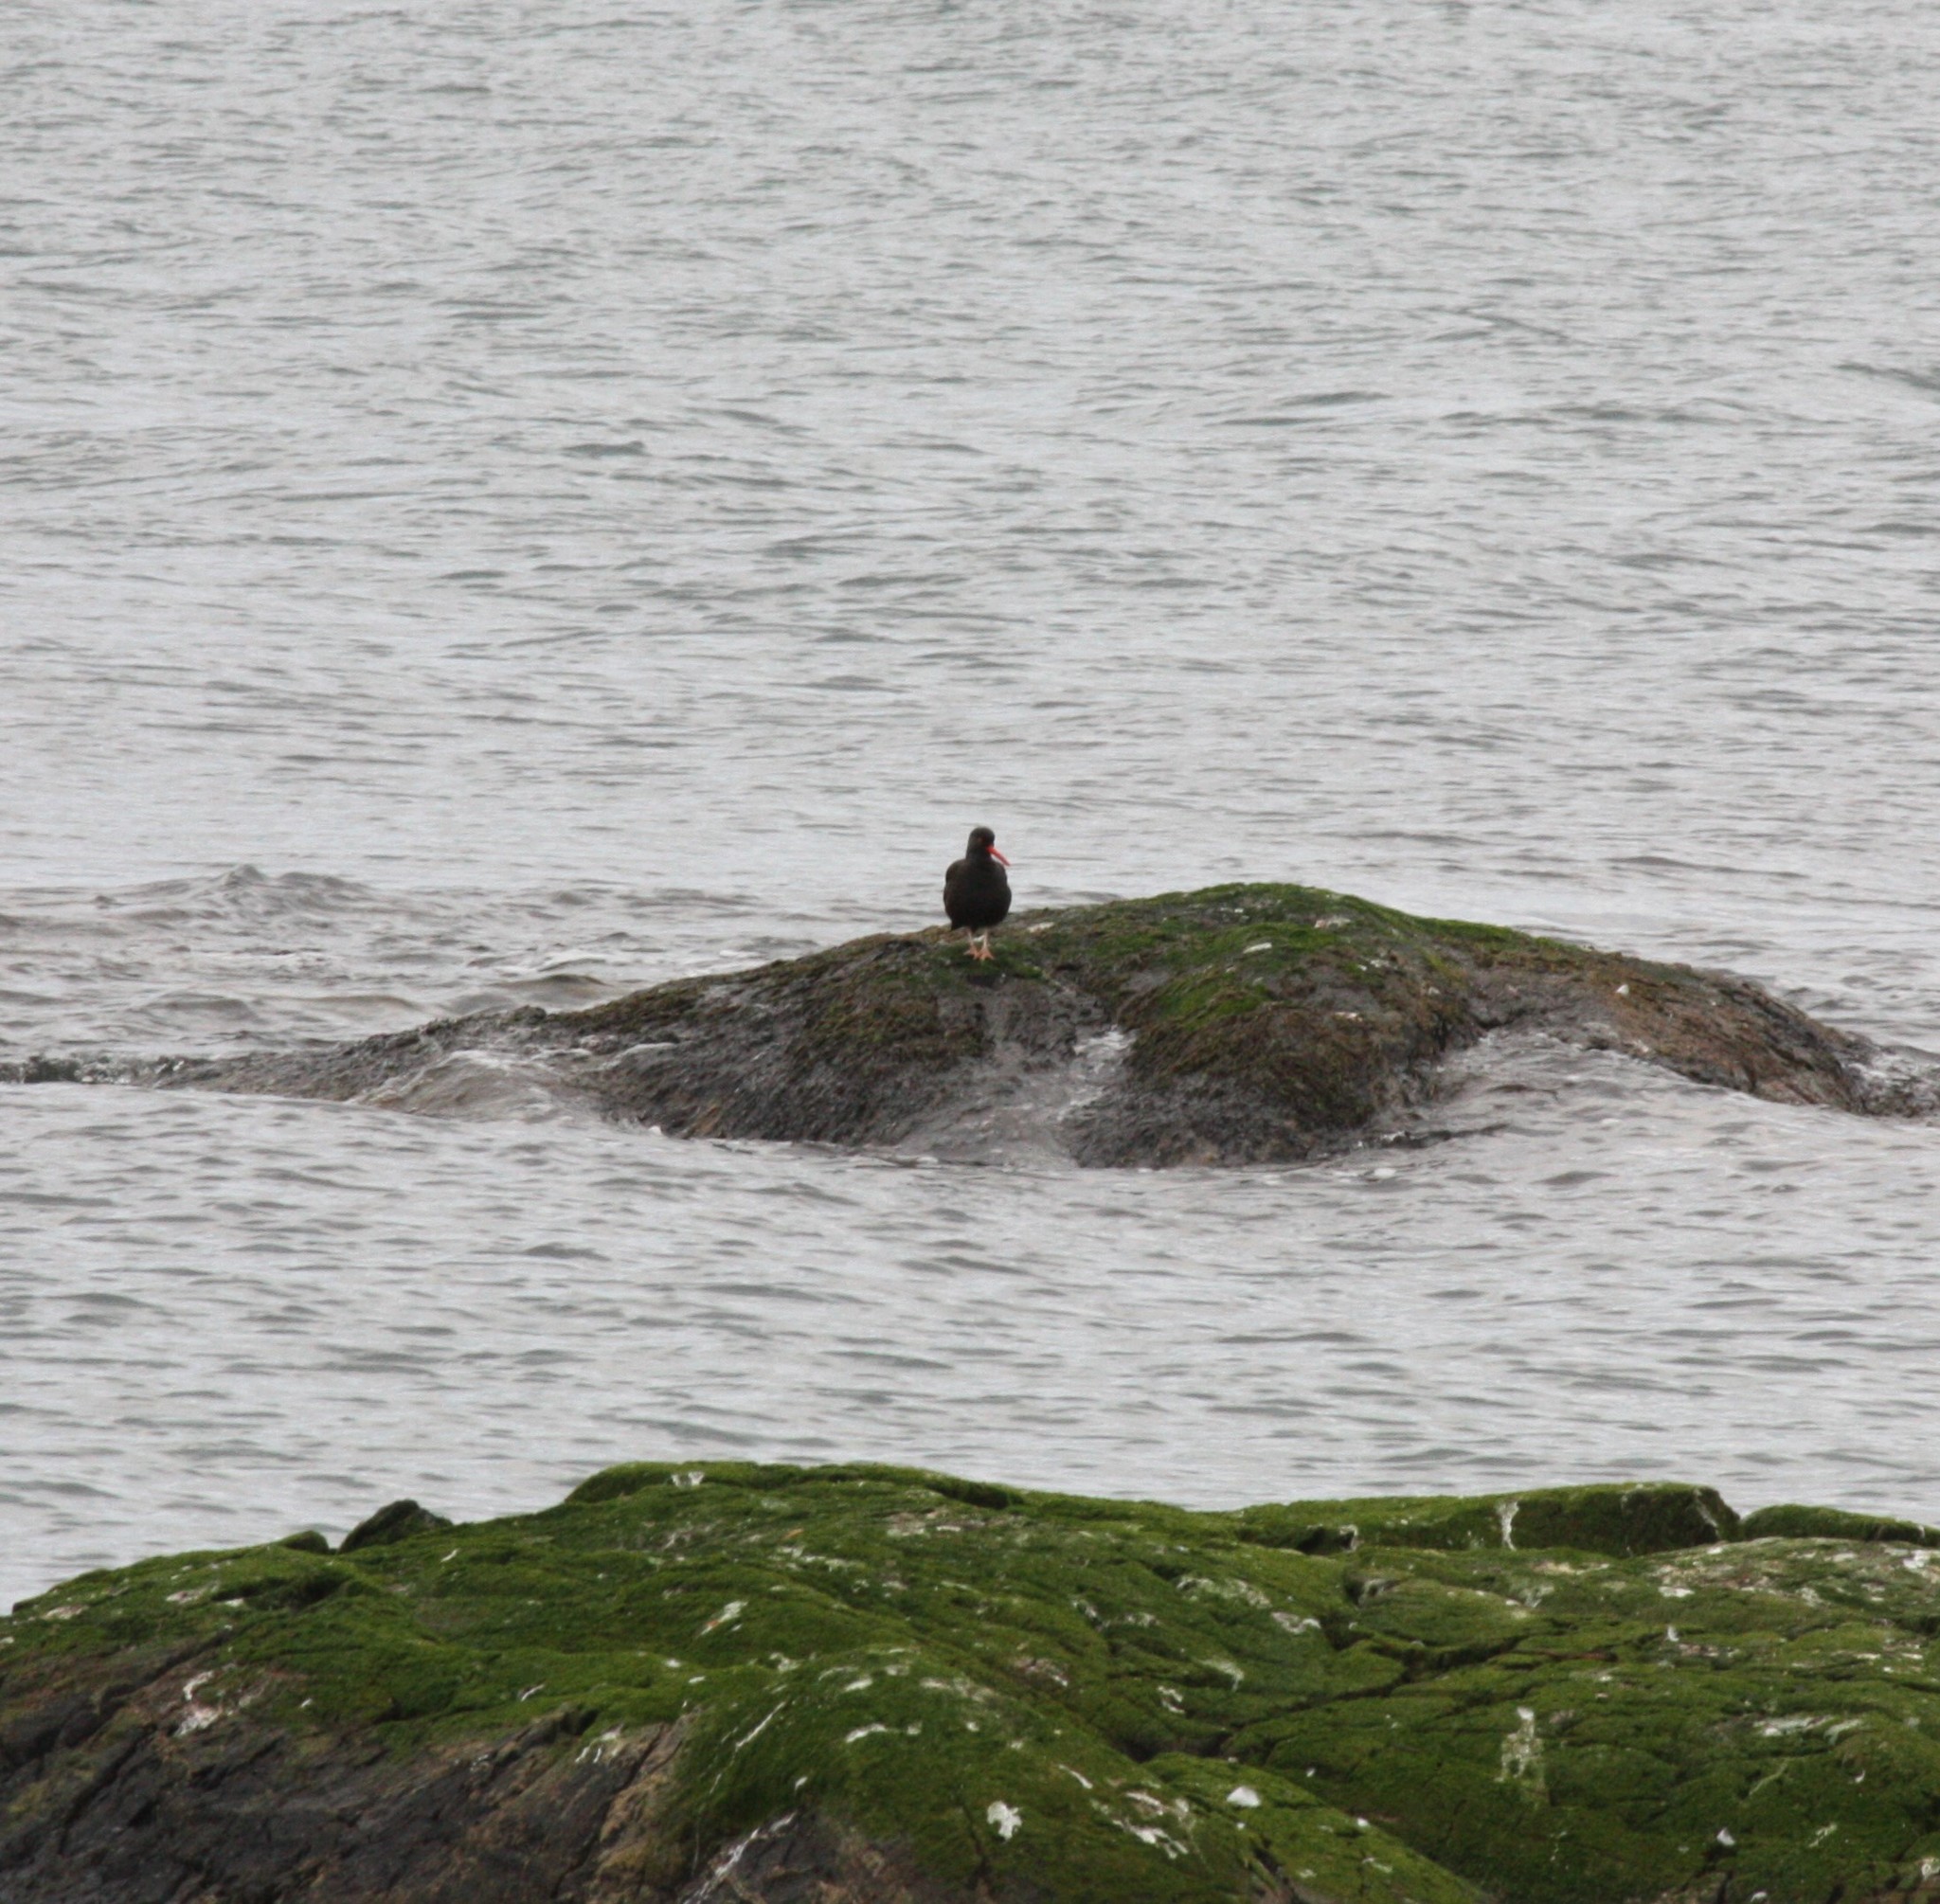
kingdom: Animalia
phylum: Chordata
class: Aves
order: Charadriiformes
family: Haematopodidae
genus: Haematopus
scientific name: Haematopus bachmani
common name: Black oystercatcher
